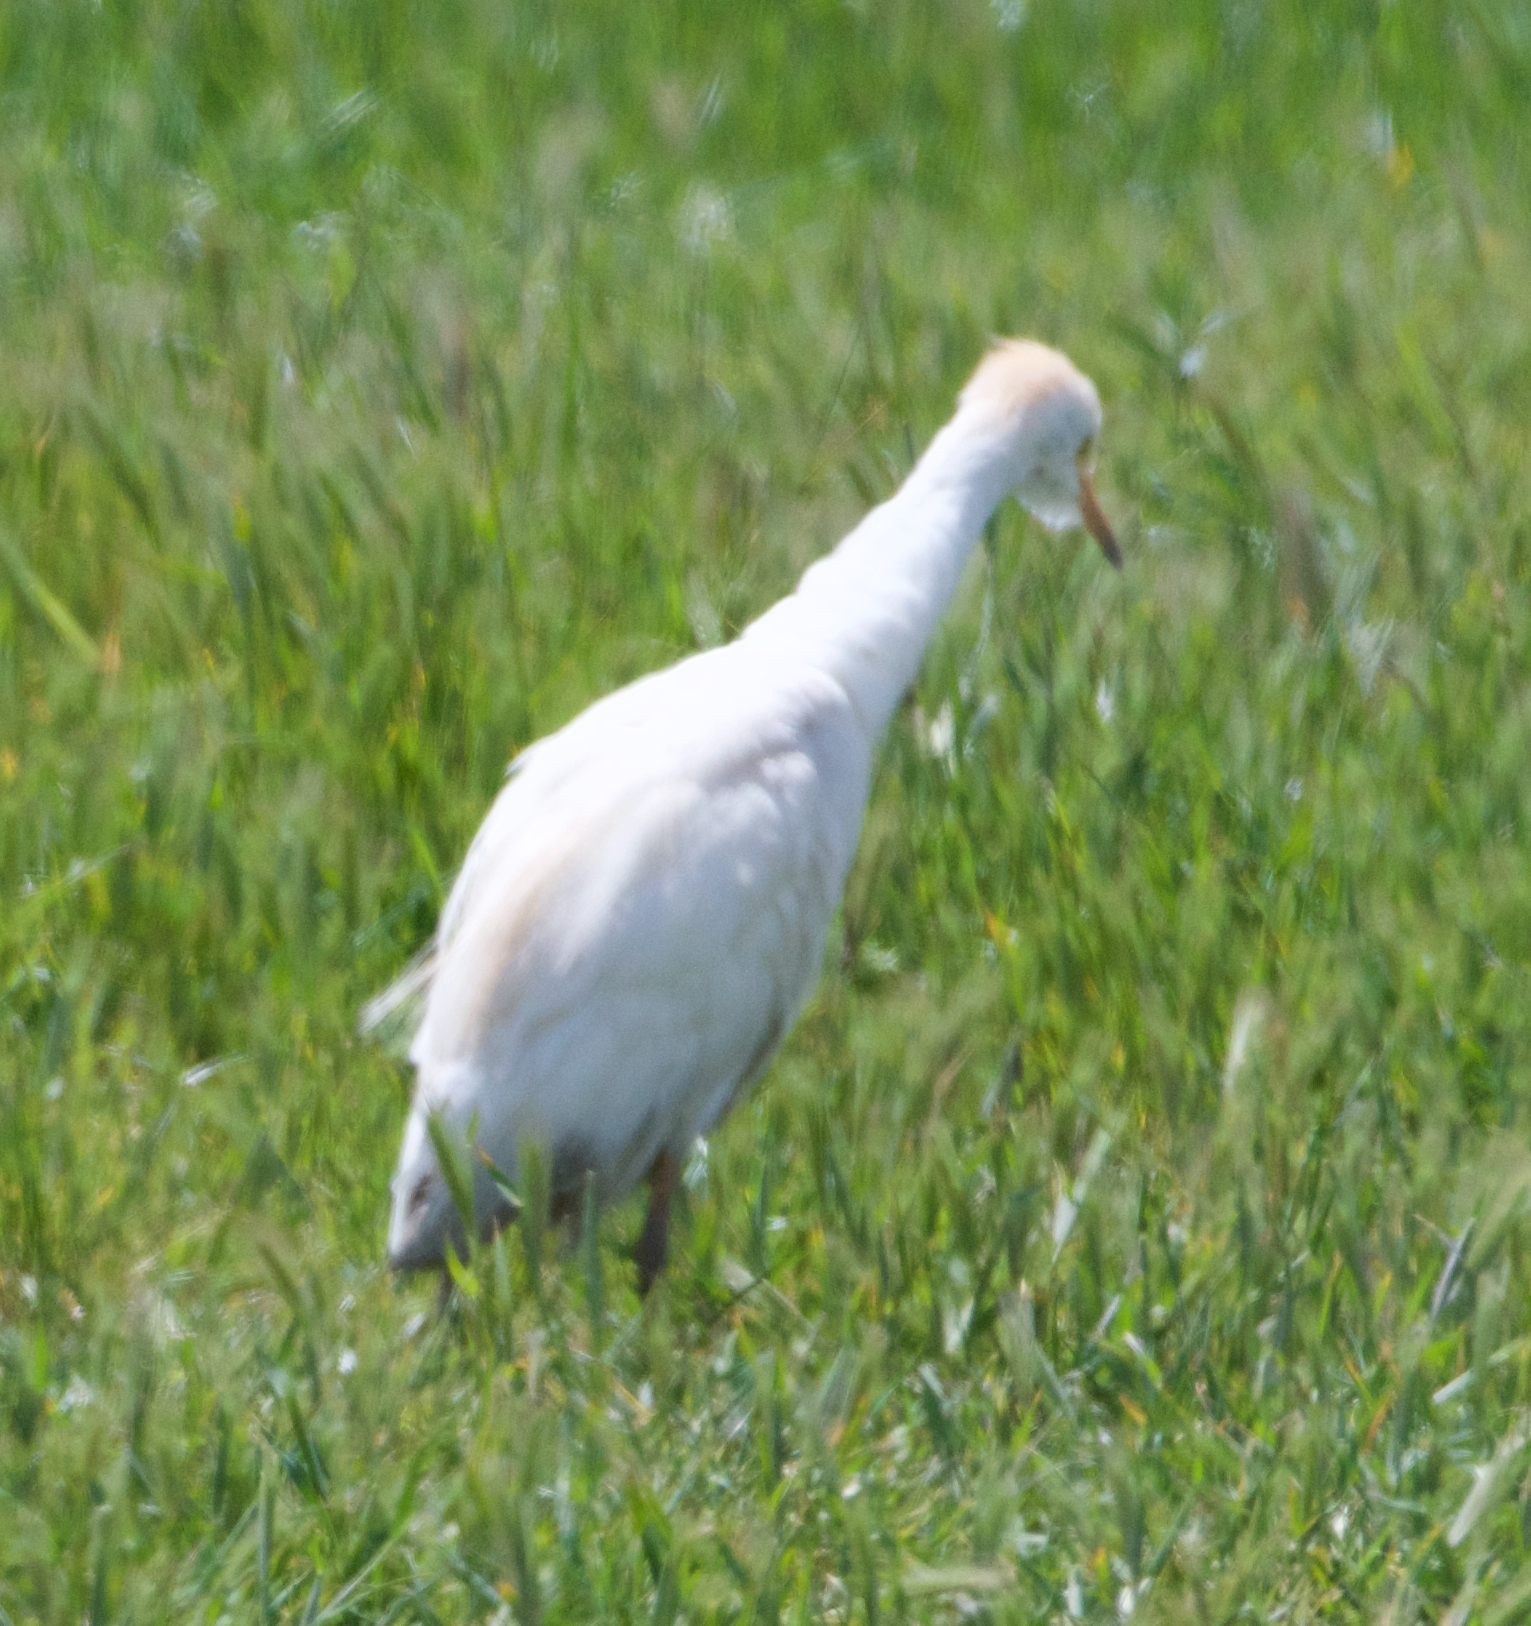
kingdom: Animalia
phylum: Chordata
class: Aves
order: Pelecaniformes
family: Ardeidae
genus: Bubulcus
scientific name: Bubulcus ibis
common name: Cattle egret
